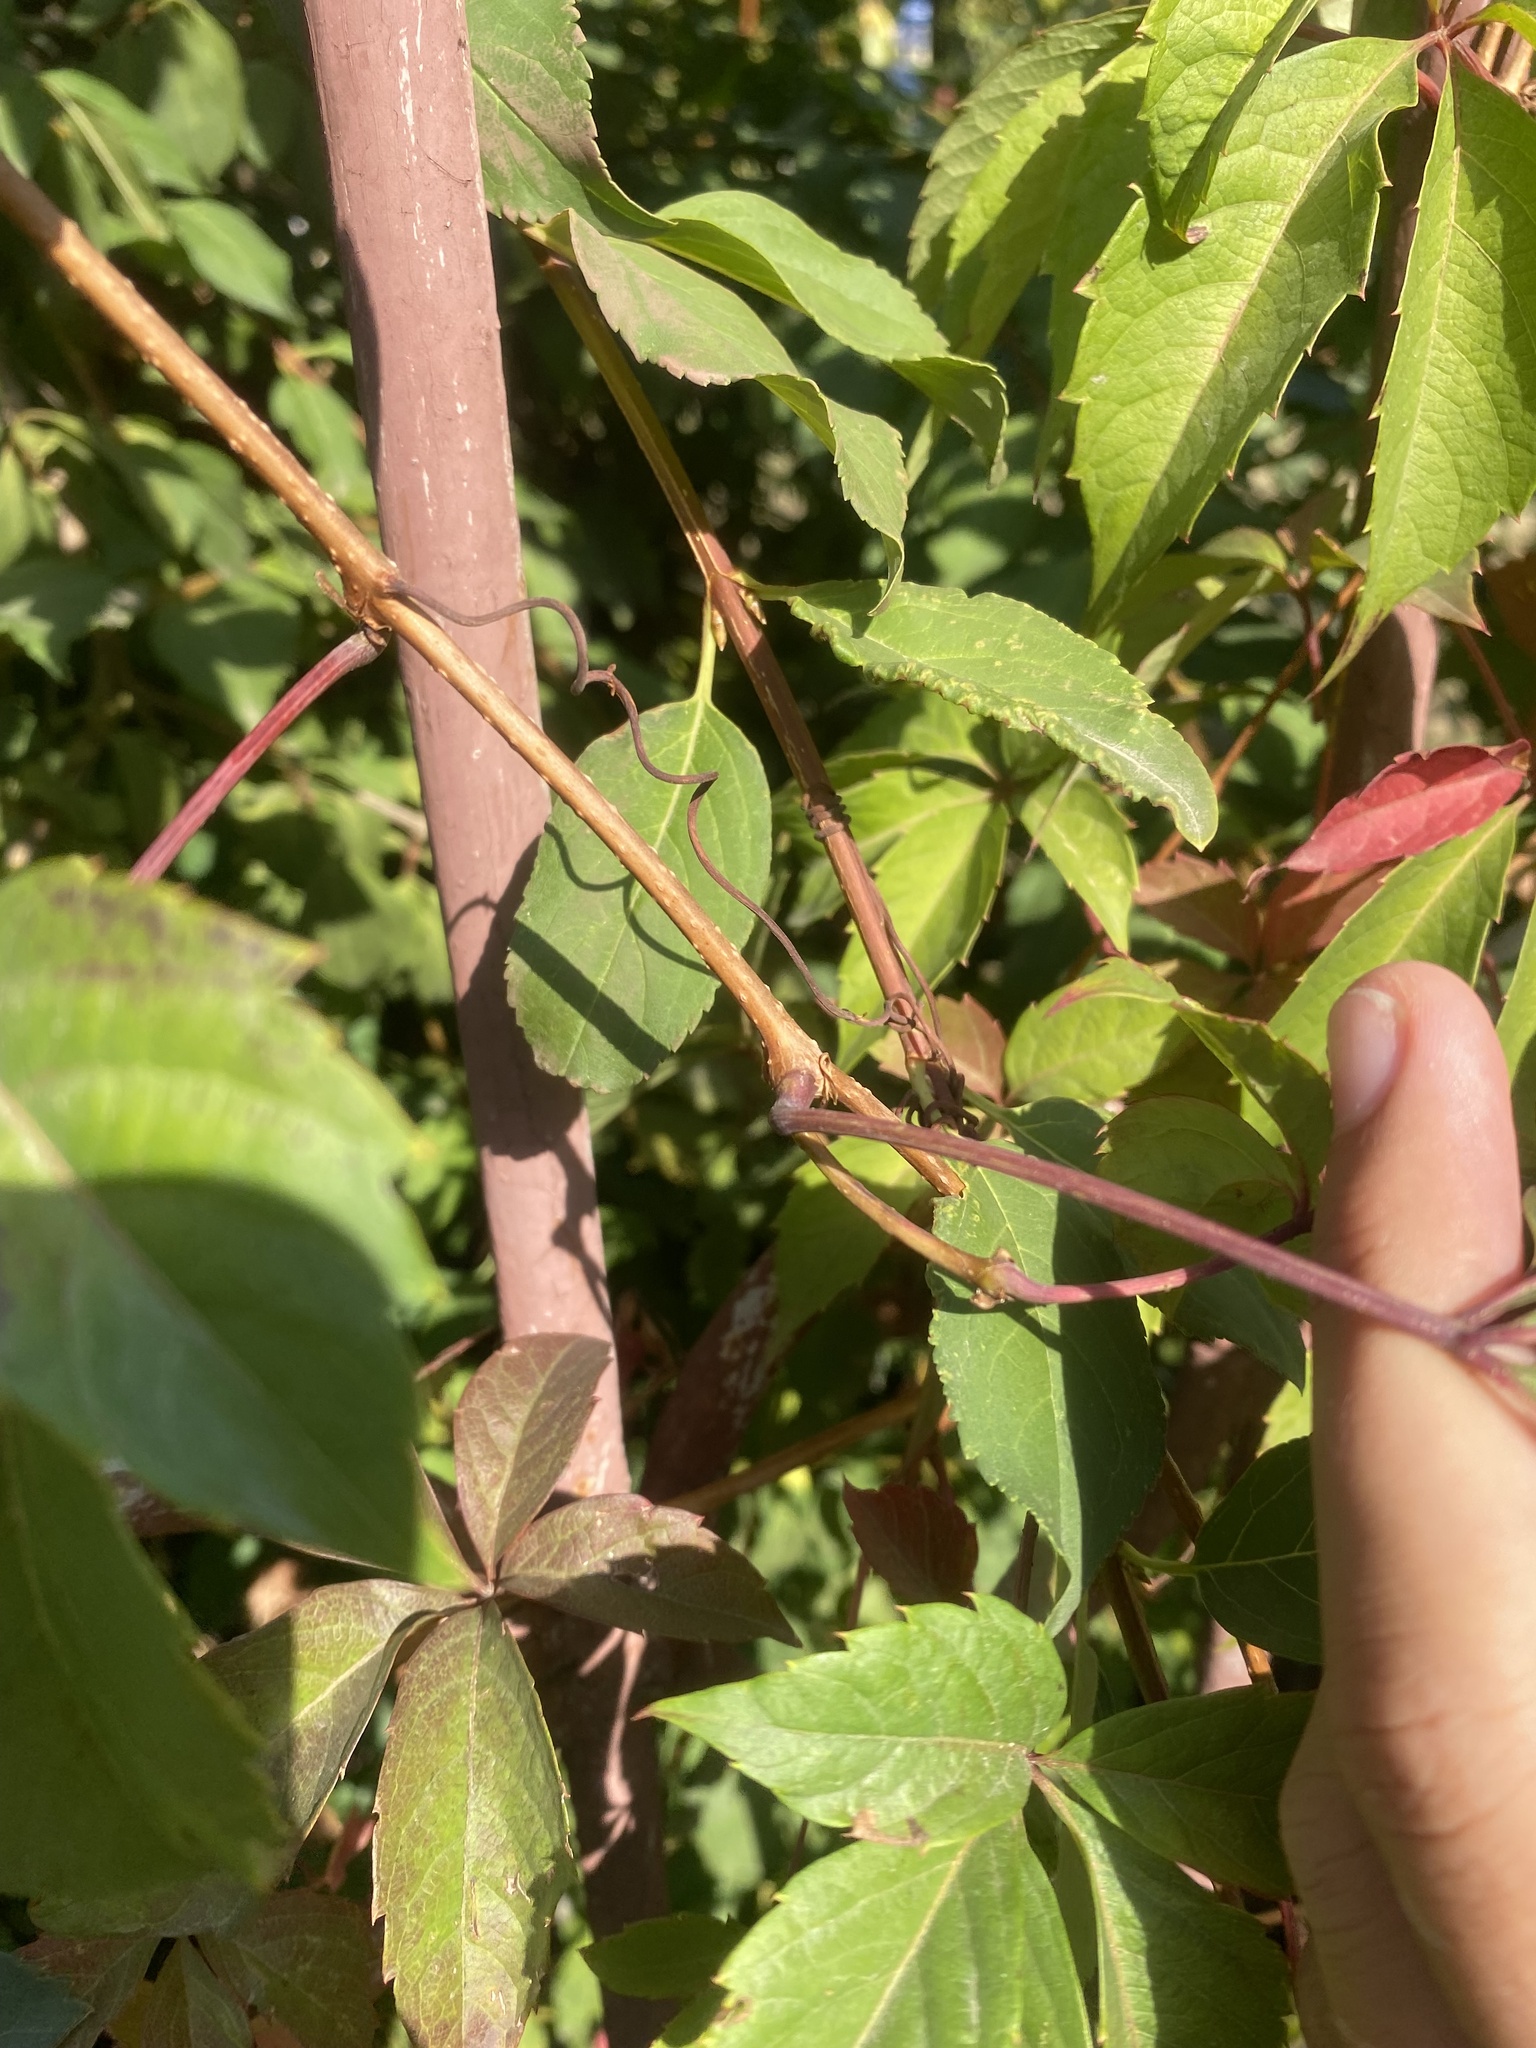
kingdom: Plantae
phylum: Tracheophyta
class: Magnoliopsida
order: Vitales
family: Vitaceae
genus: Parthenocissus
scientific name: Parthenocissus inserta
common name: False virginia-creeper
